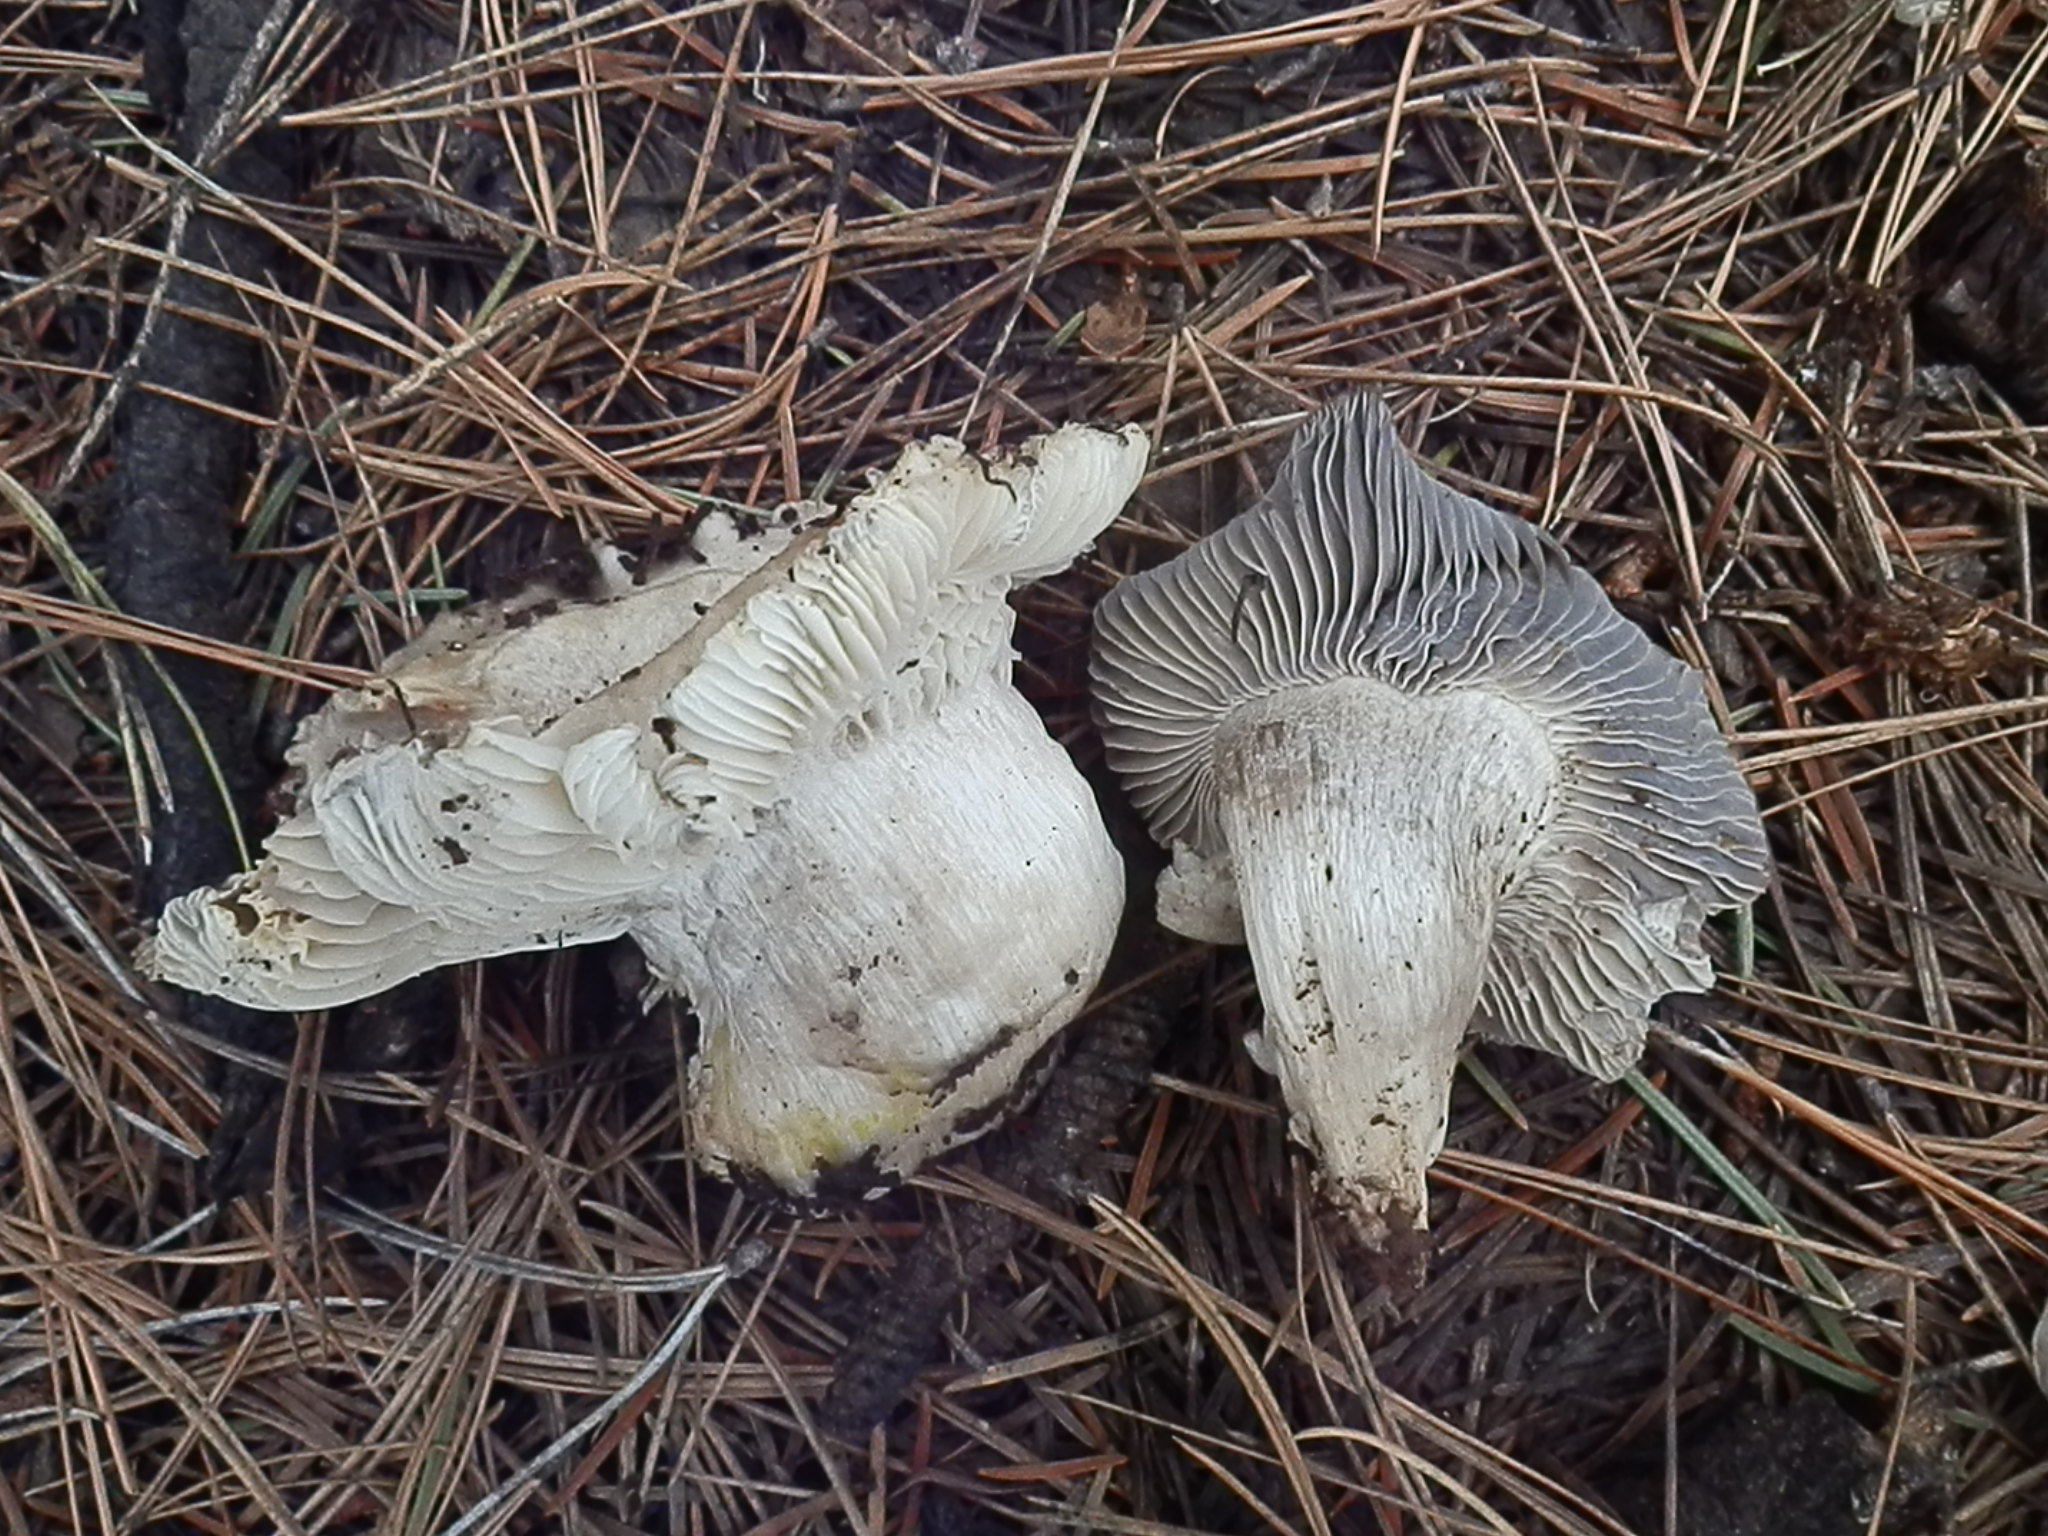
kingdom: Fungi
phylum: Basidiomycota
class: Agaricomycetes
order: Agaricales
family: Hygrophoraceae
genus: Hygrophorus
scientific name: Hygrophorus marzuolus
